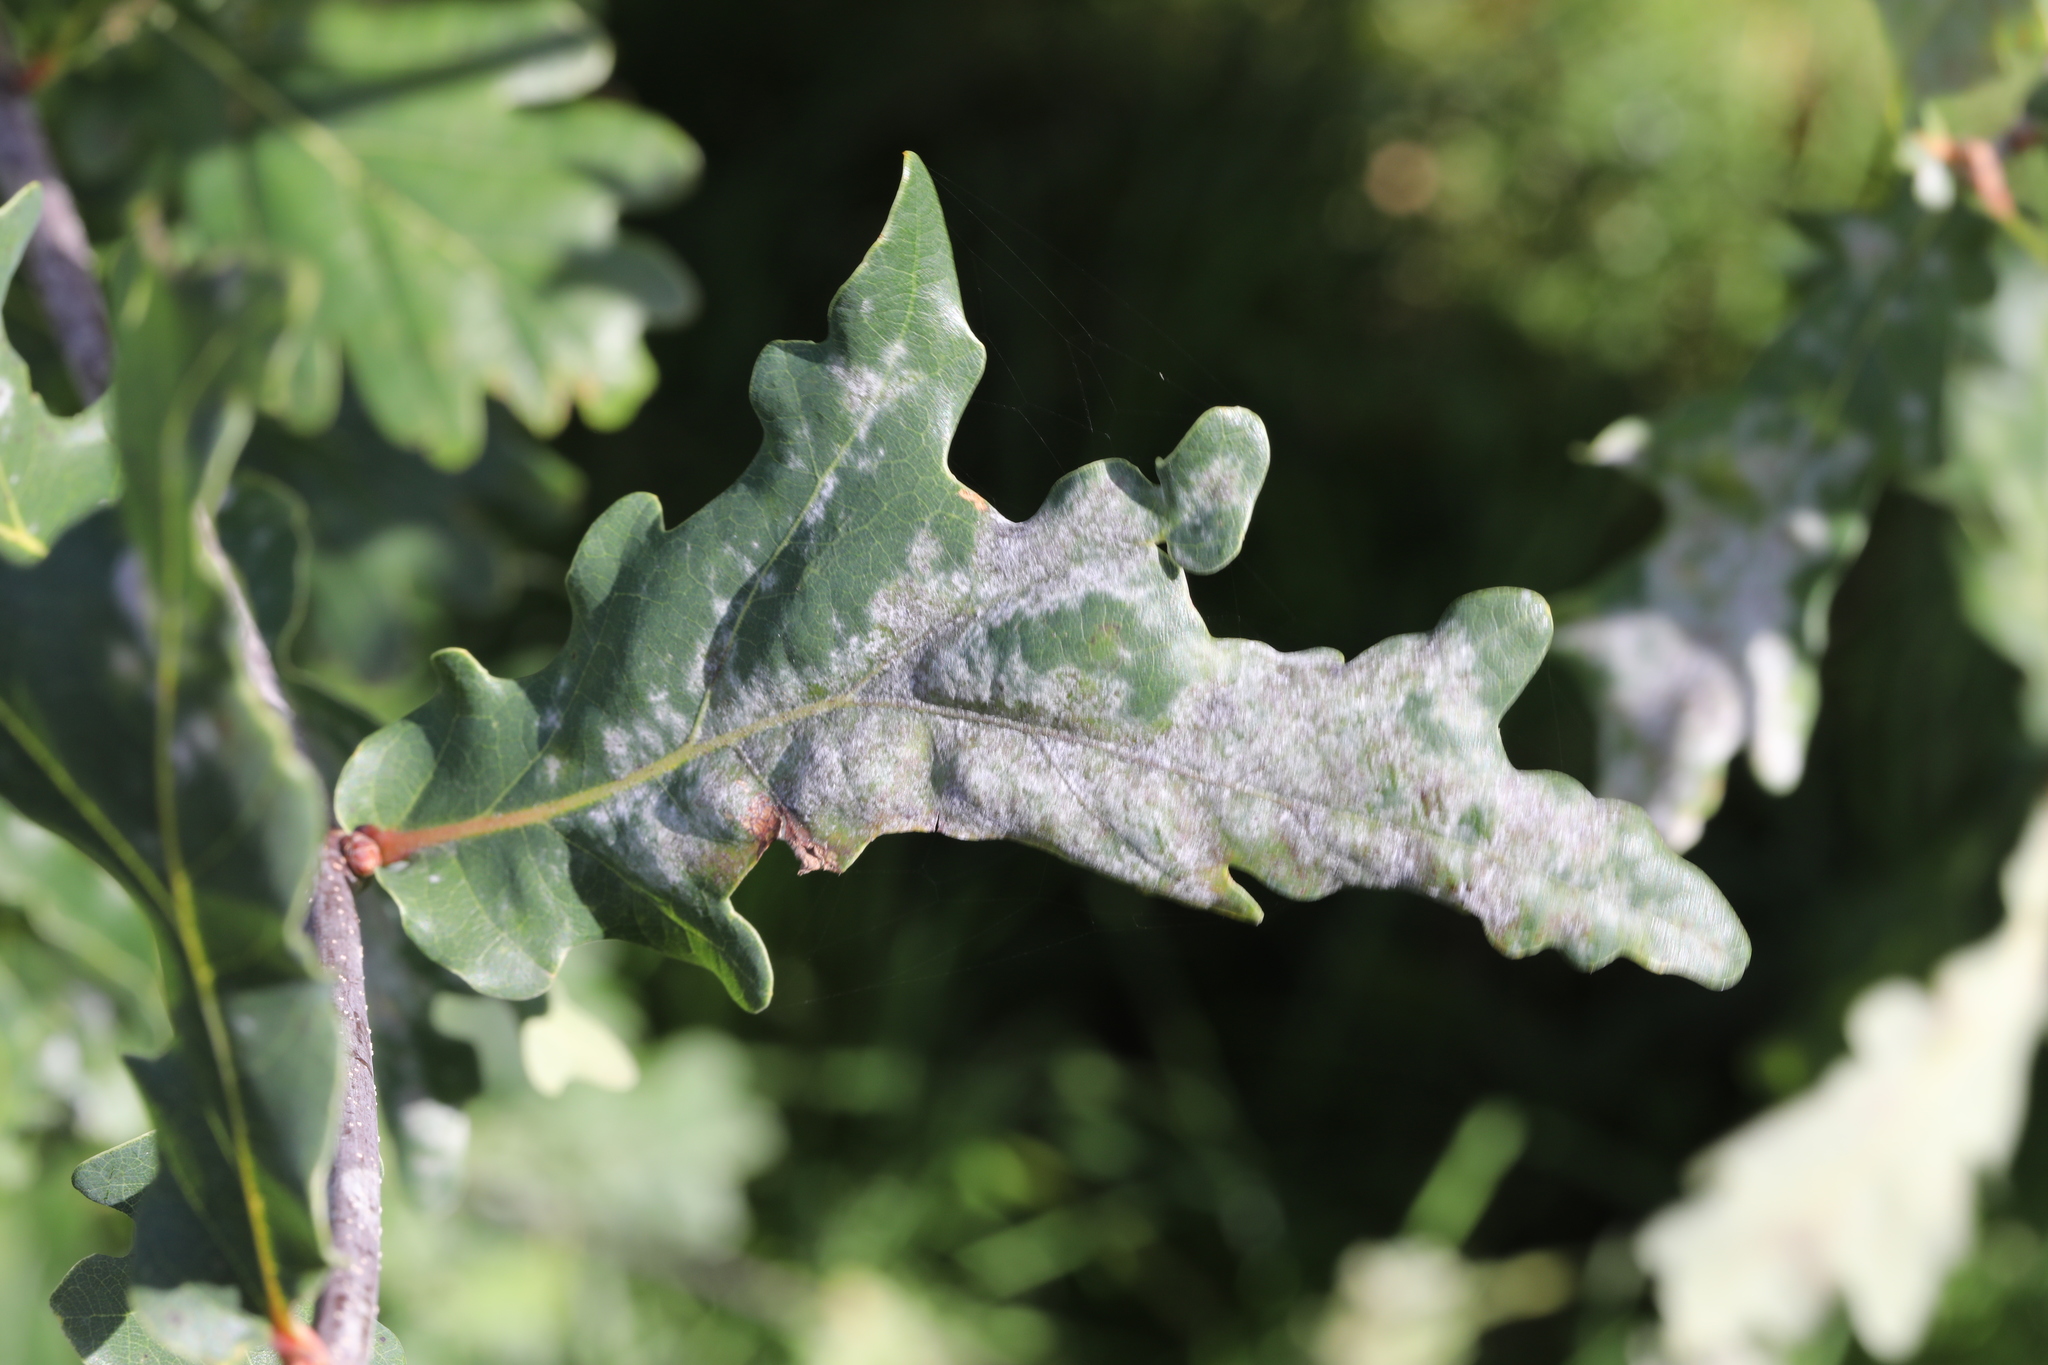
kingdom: Fungi
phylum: Ascomycota
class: Leotiomycetes
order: Helotiales
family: Erysiphaceae
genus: Erysiphe
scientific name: Erysiphe alphitoides
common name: Oak mildew
